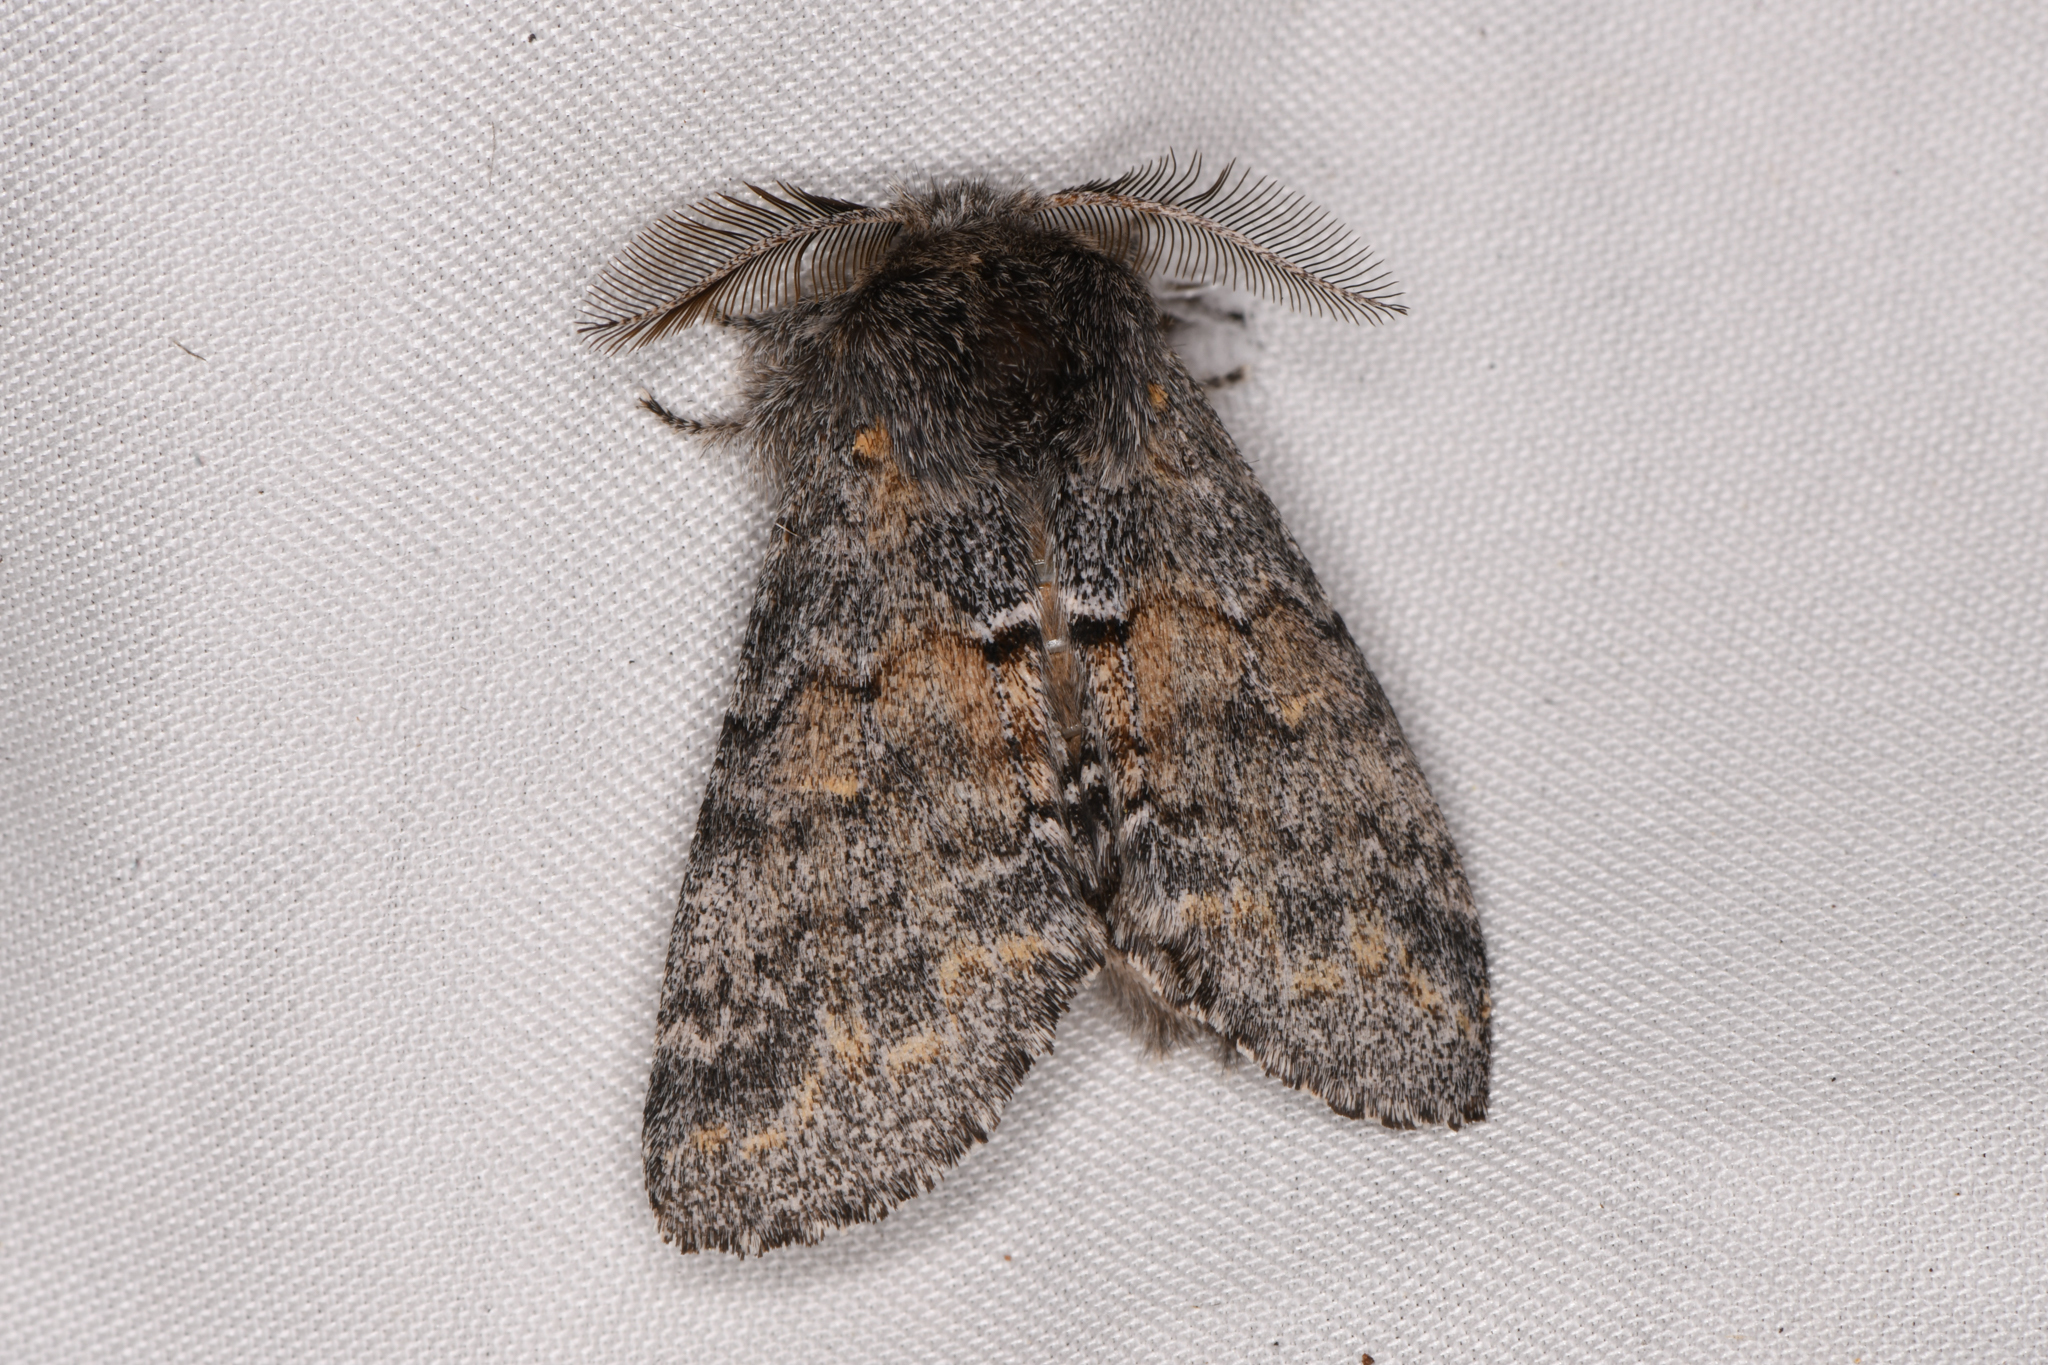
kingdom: Animalia
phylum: Arthropoda
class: Insecta
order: Lepidoptera
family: Notodontidae
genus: Gluphisia
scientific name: Gluphisia severa
